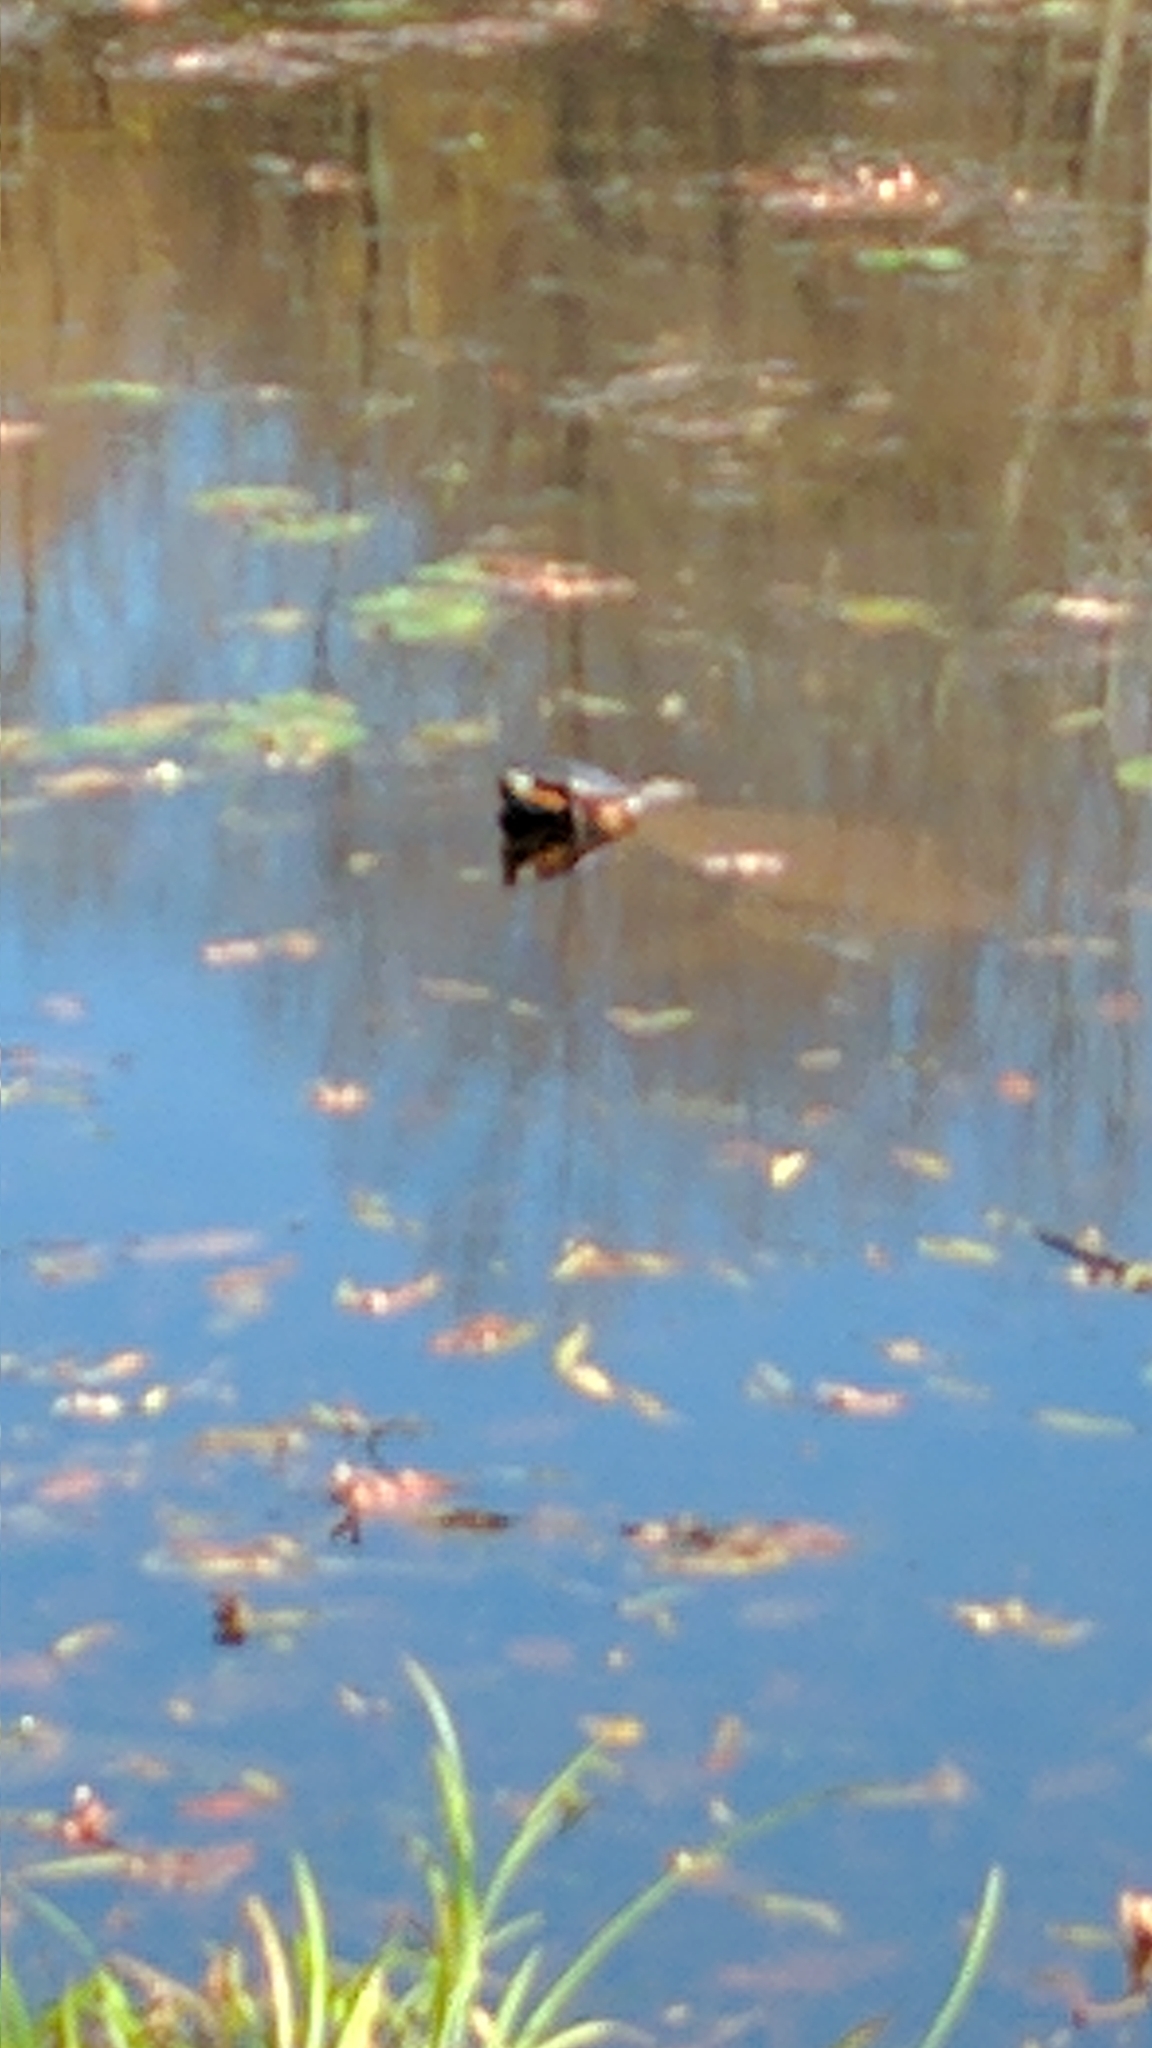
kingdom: Animalia
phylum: Chordata
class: Testudines
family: Emydidae
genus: Chrysemys
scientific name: Chrysemys picta
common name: Painted turtle
